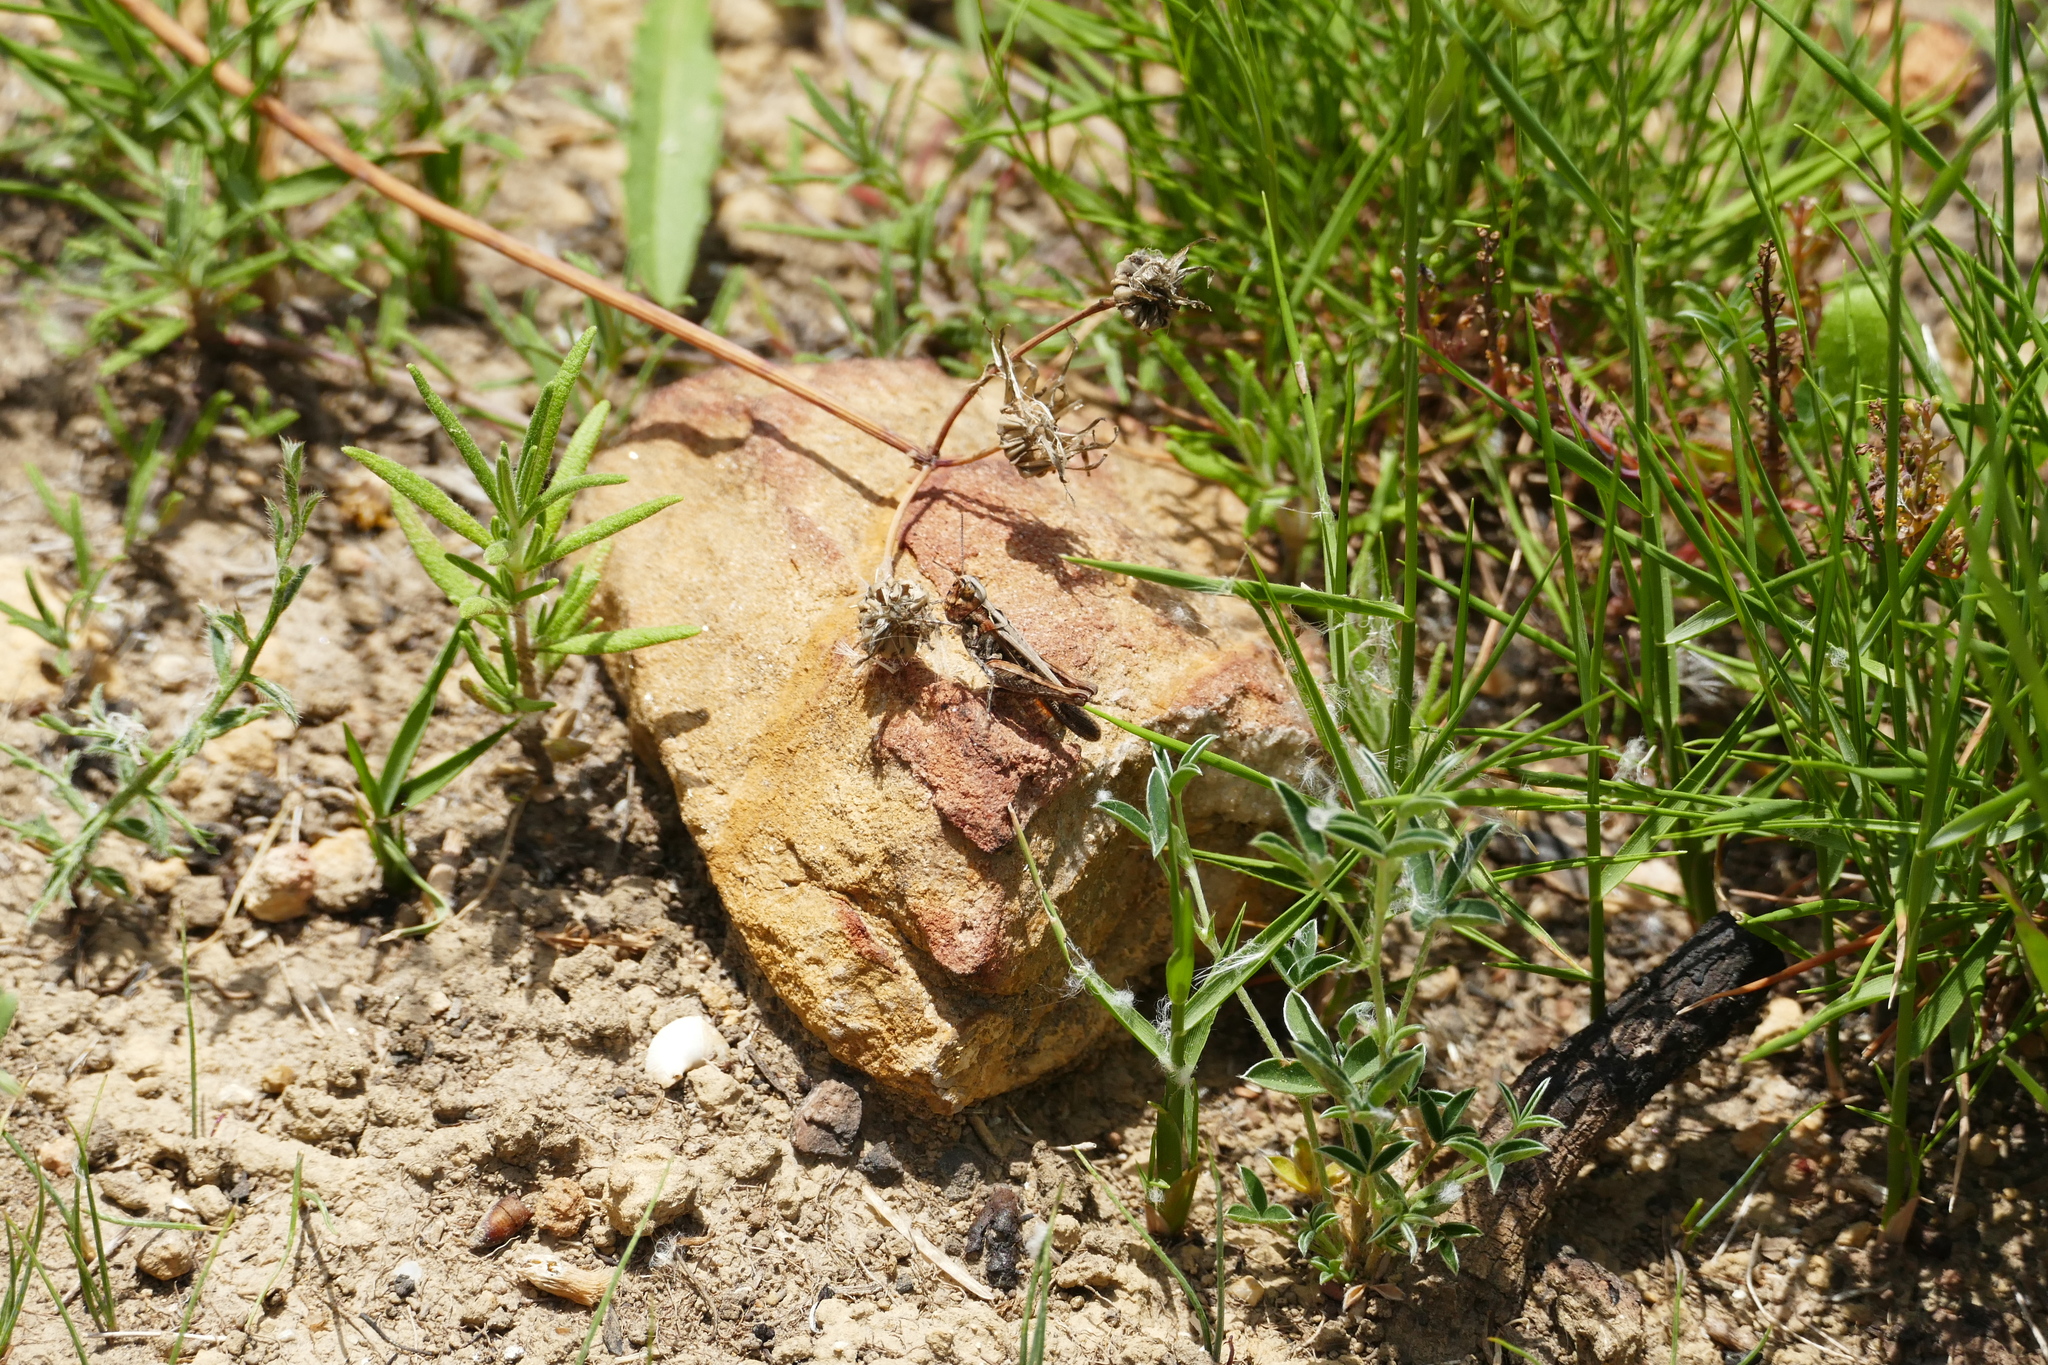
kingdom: Animalia
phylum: Arthropoda
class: Insecta
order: Orthoptera
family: Acrididae
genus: Omocestus
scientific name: Omocestus raymondi
